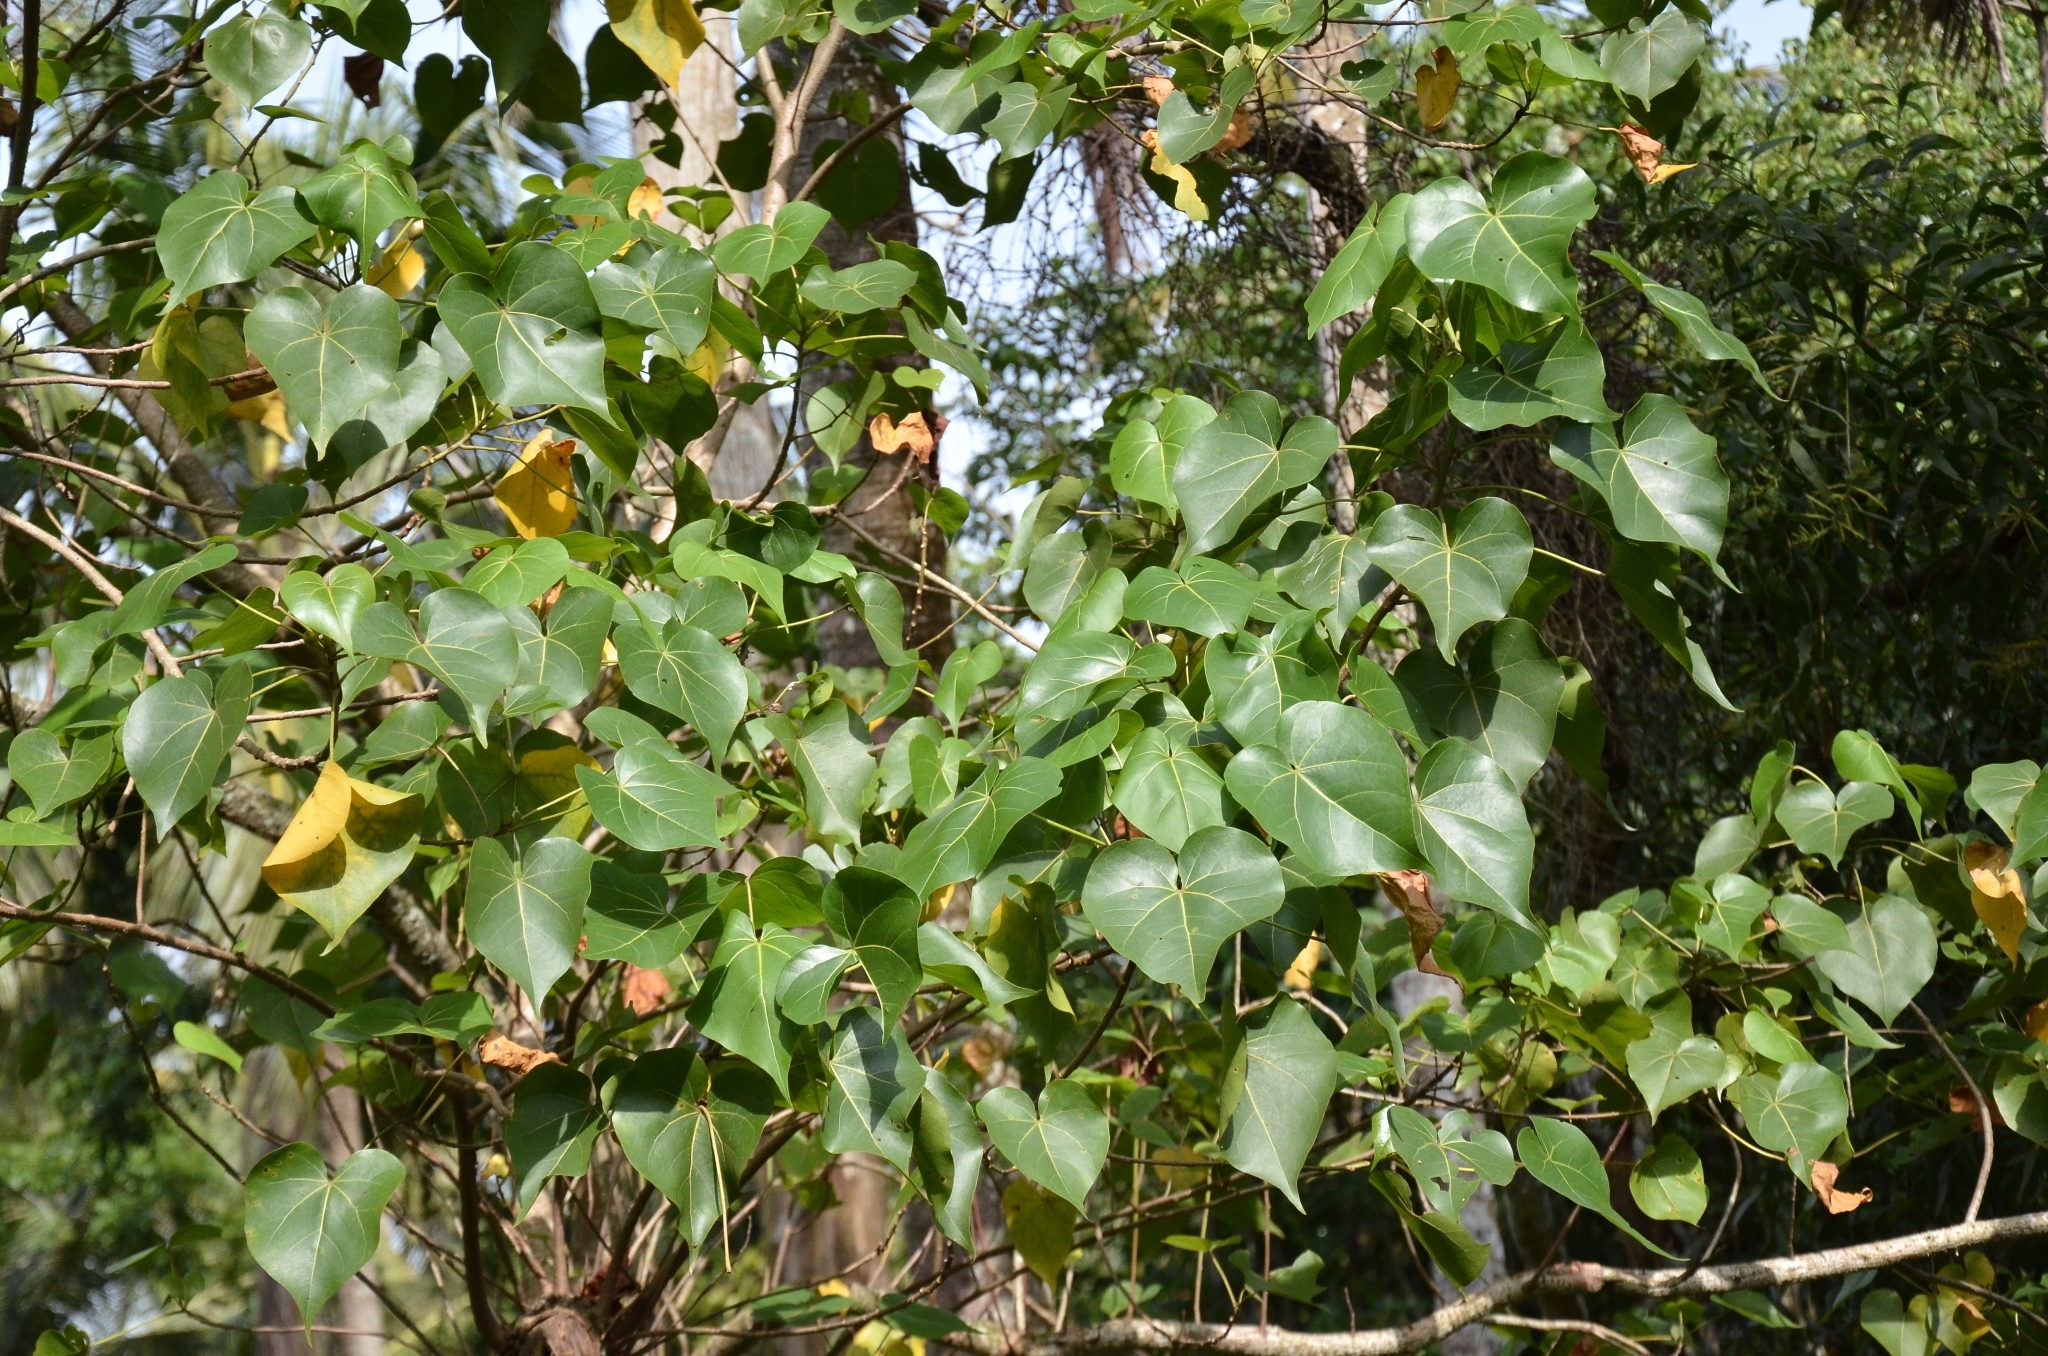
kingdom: Plantae
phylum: Tracheophyta
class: Magnoliopsida
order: Malvales
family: Malvaceae
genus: Thespesia
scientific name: Thespesia populnea
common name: Seaside mahoe
